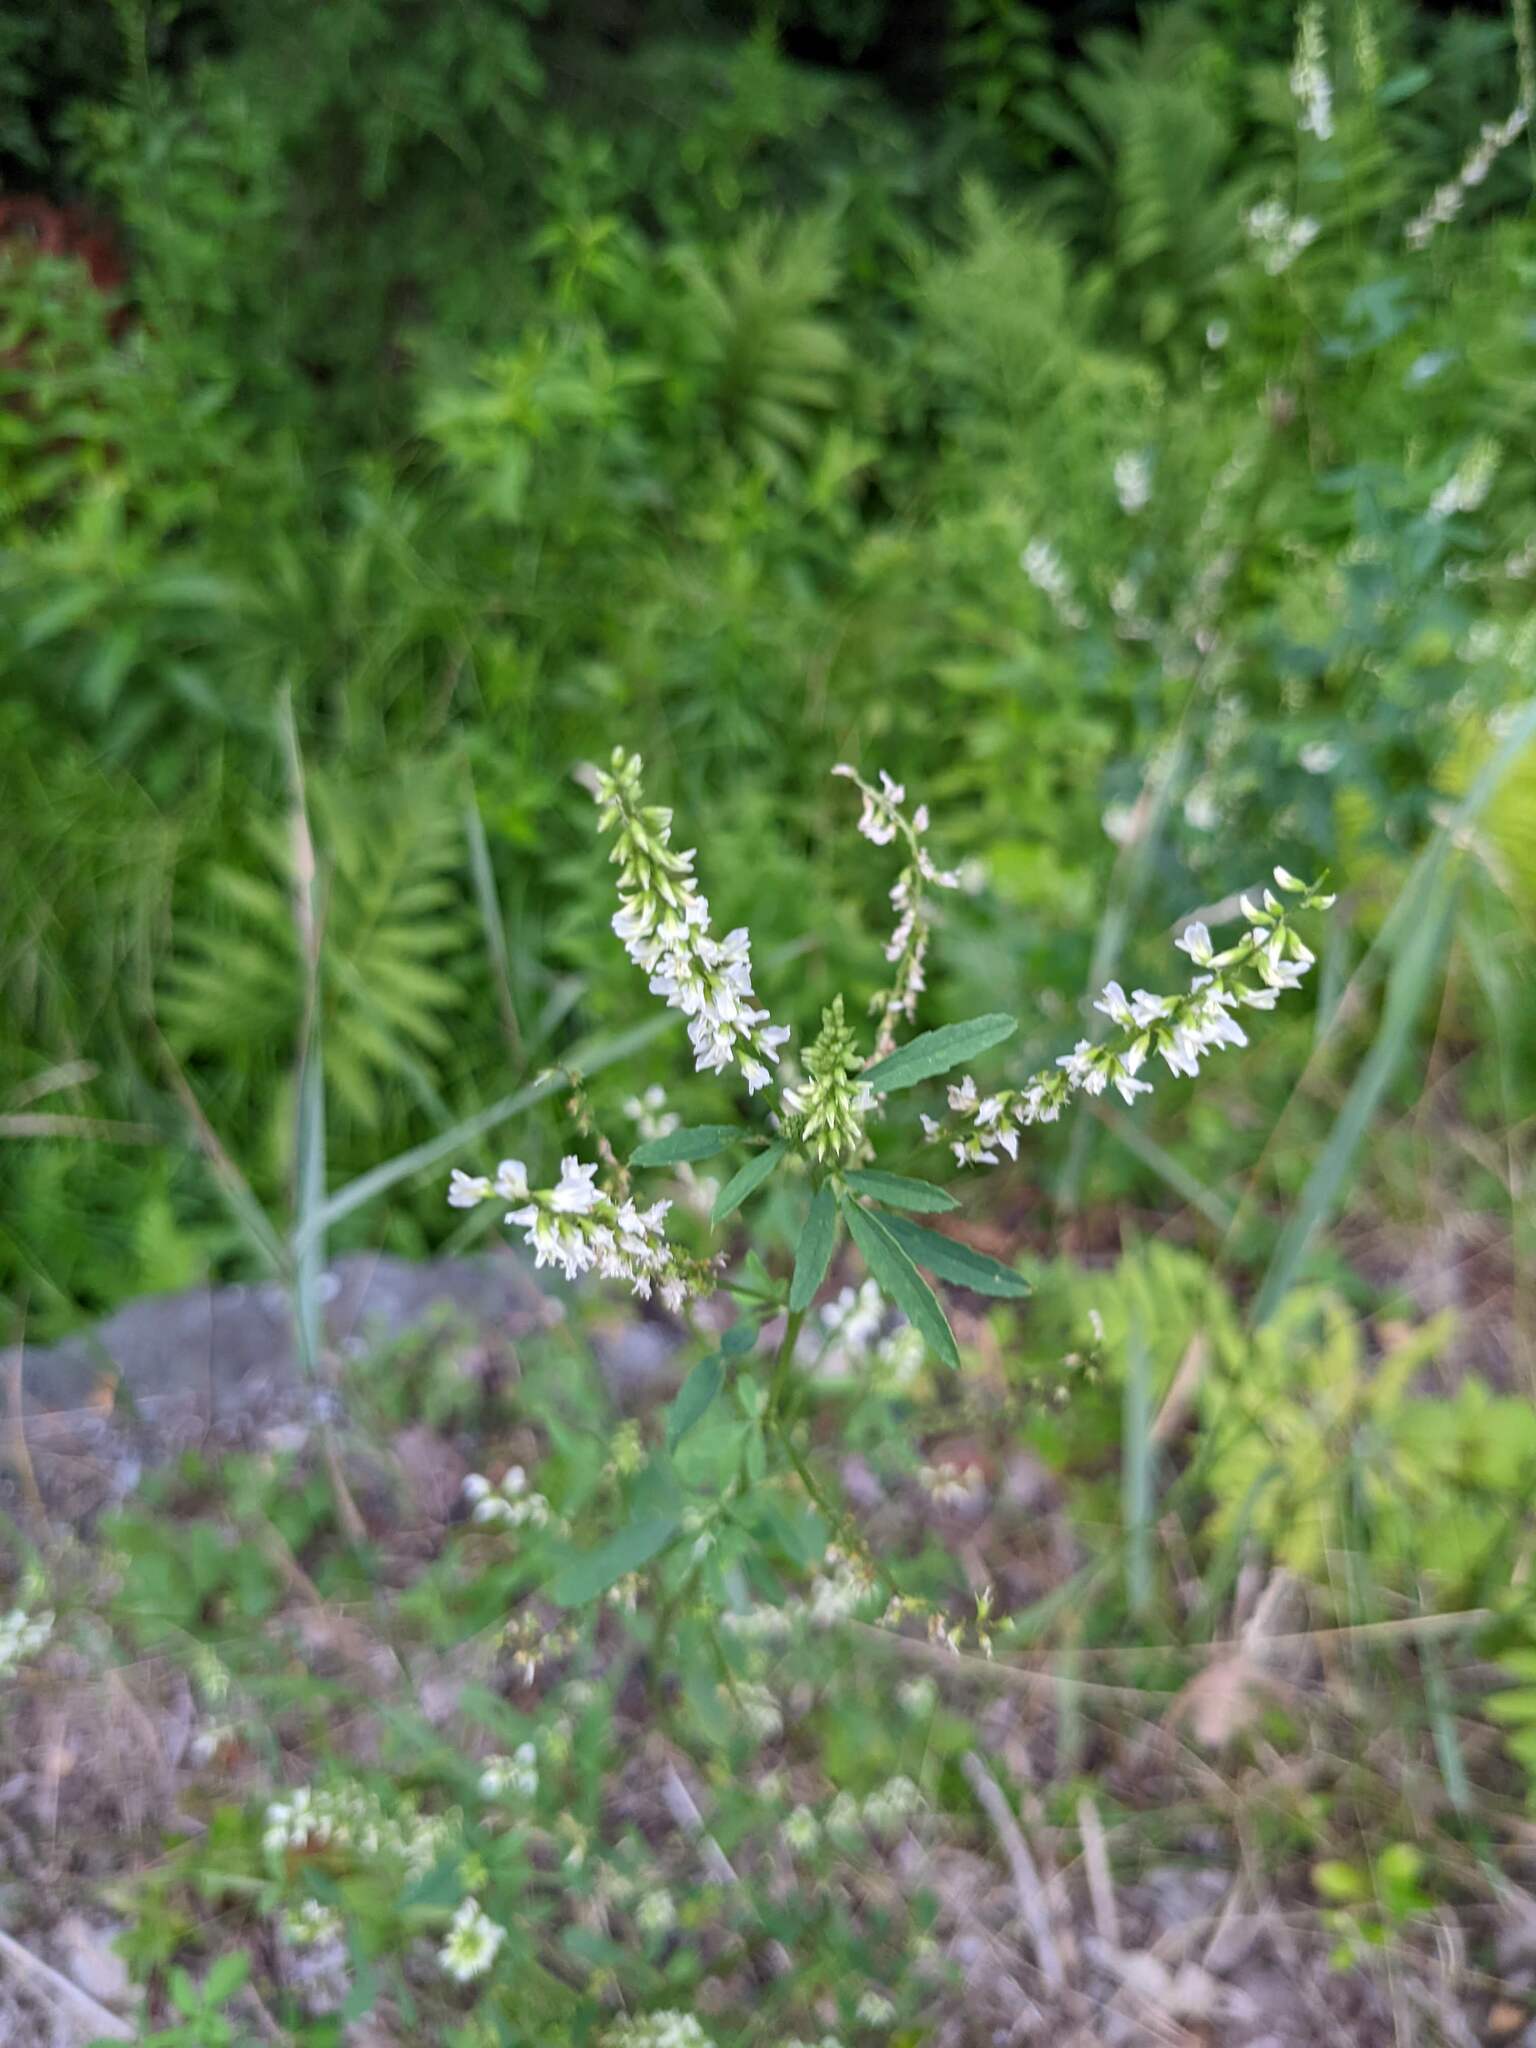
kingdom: Plantae
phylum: Tracheophyta
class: Magnoliopsida
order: Fabales
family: Fabaceae
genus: Melilotus
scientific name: Melilotus albus
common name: White melilot
